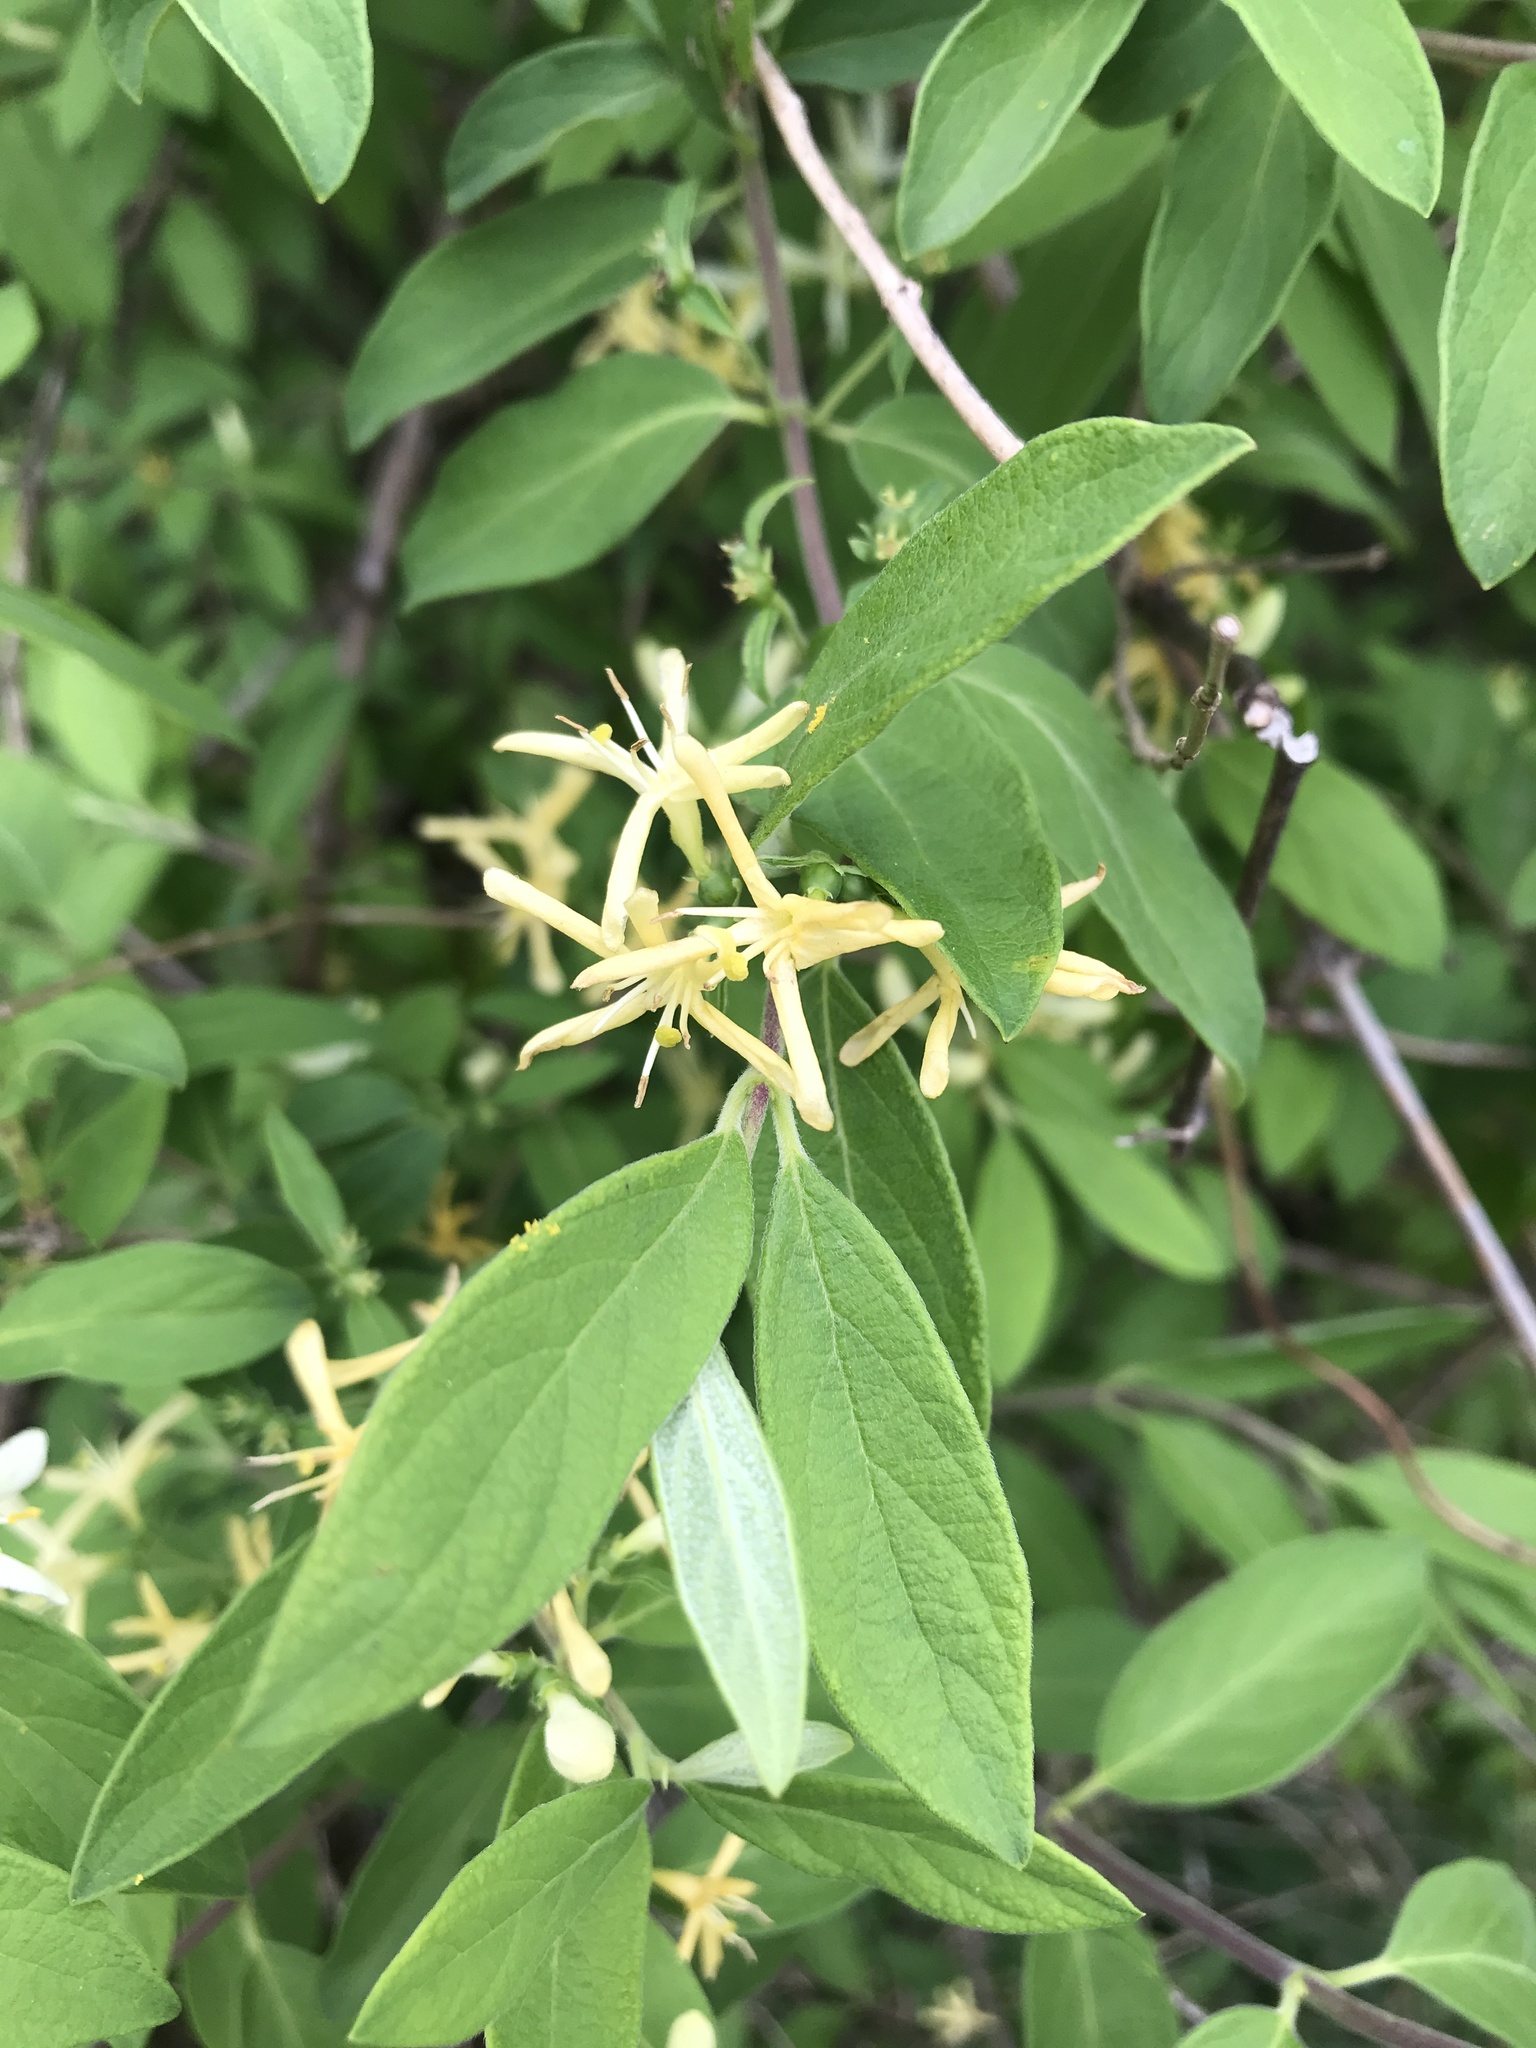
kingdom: Plantae
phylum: Tracheophyta
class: Magnoliopsida
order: Dipsacales
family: Caprifoliaceae
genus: Lonicera
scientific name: Lonicera morrowii
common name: Morrow's honeysuckle
